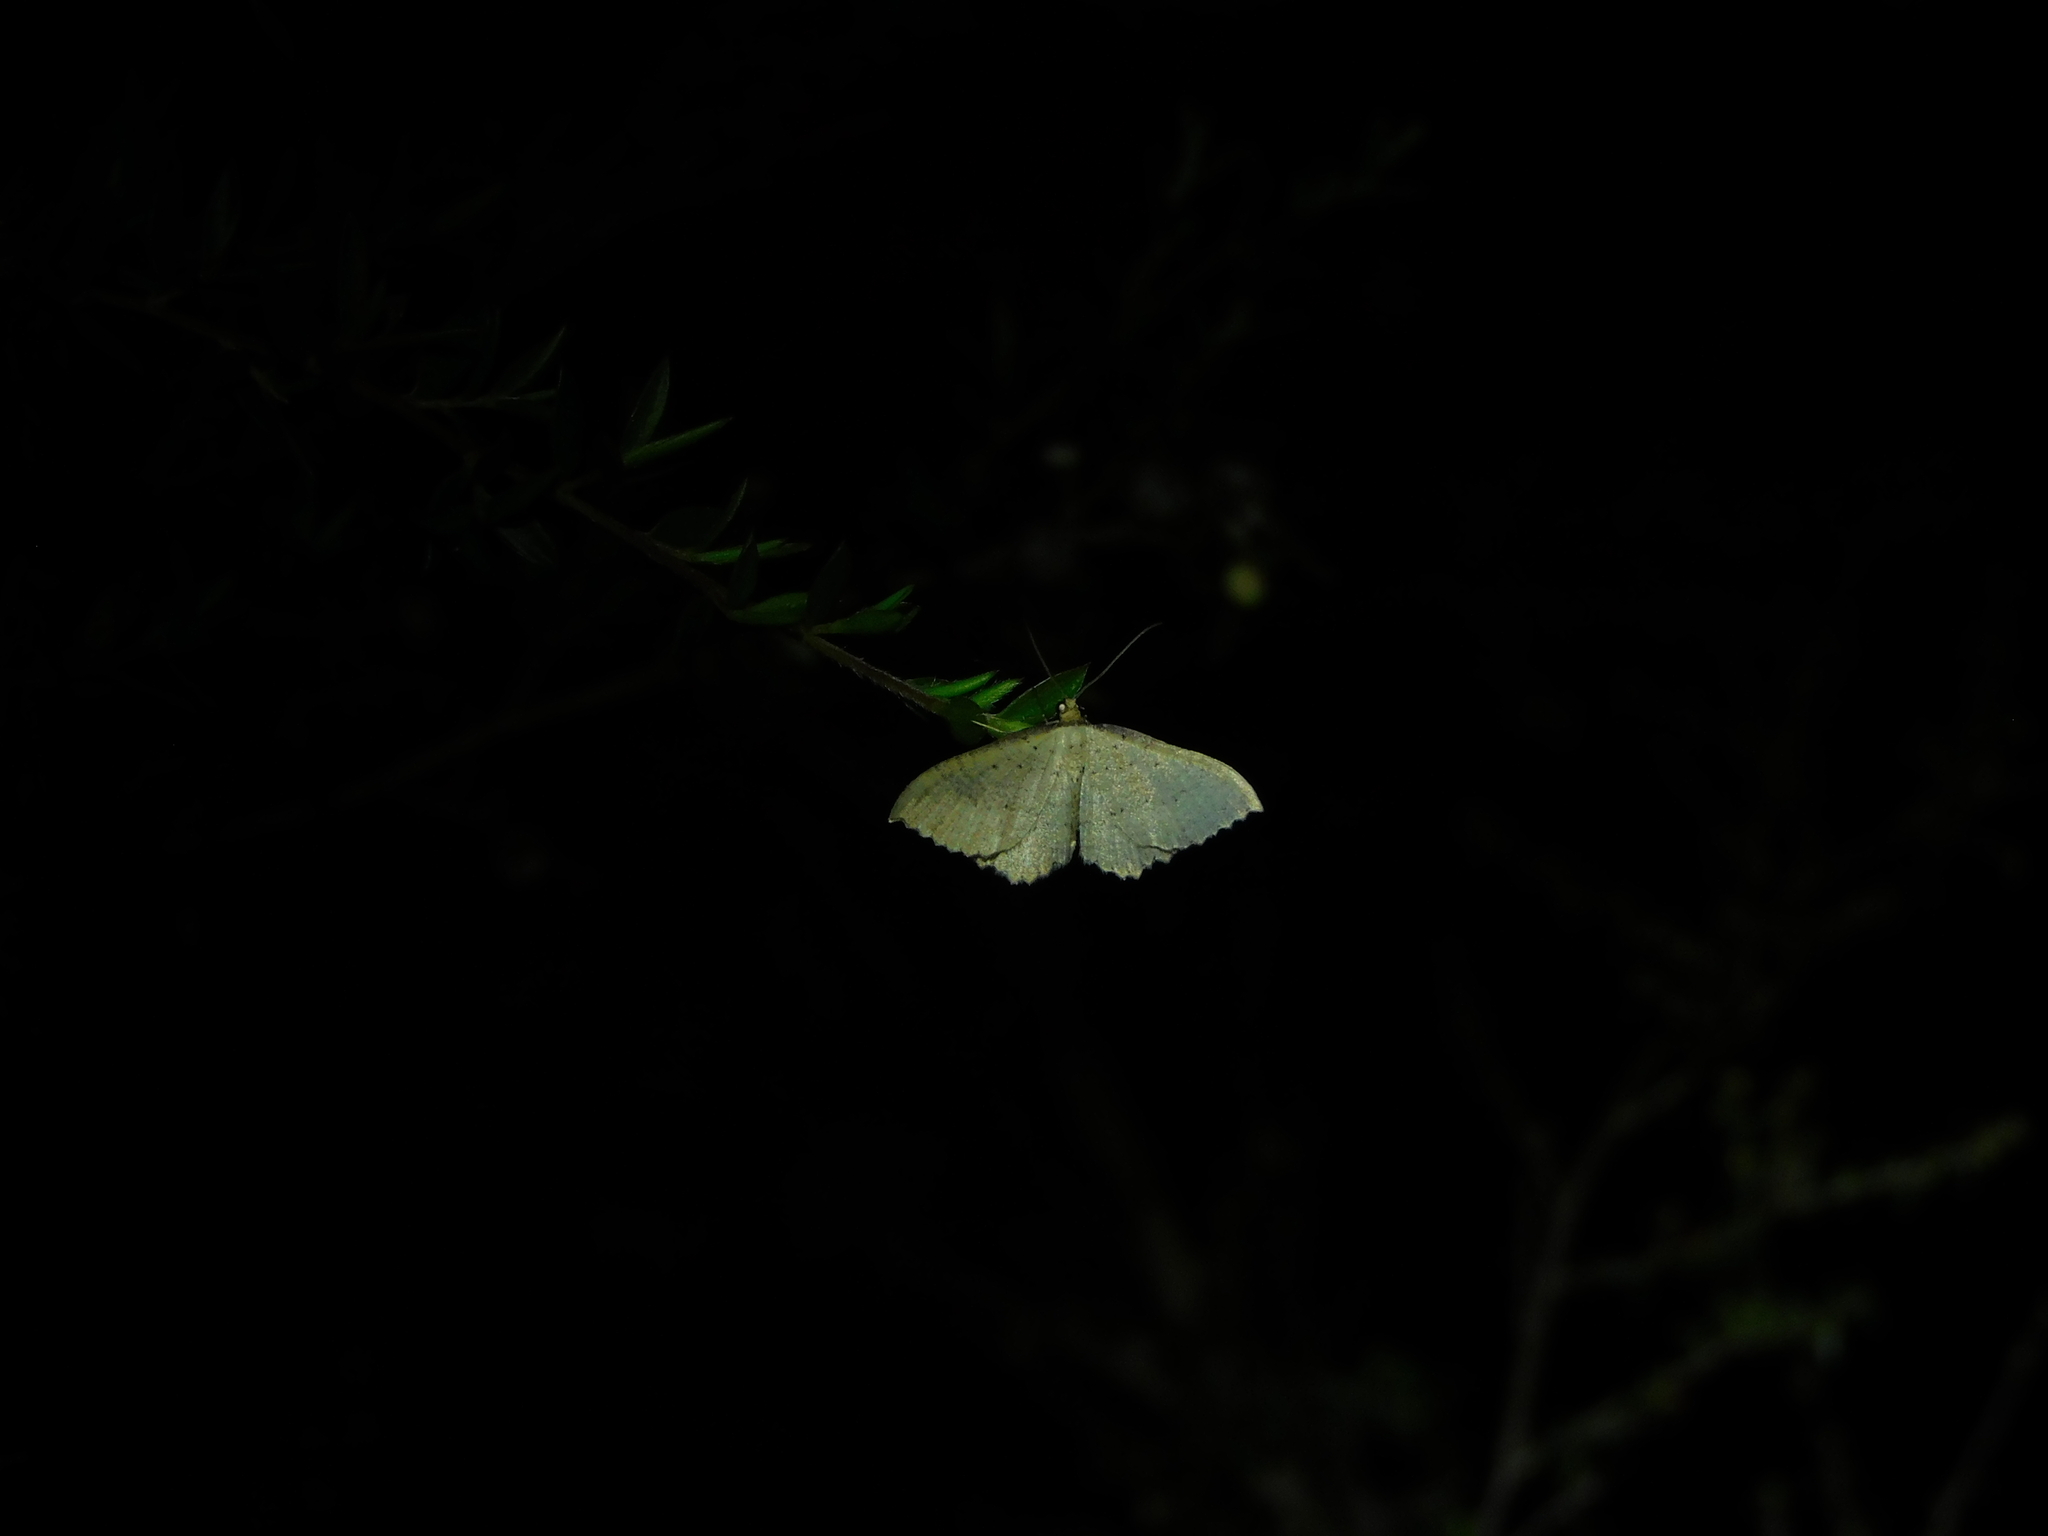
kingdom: Animalia
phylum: Arthropoda
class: Insecta
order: Lepidoptera
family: Geometridae
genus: Chrysolarentia
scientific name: Chrysolarentia microcyma
